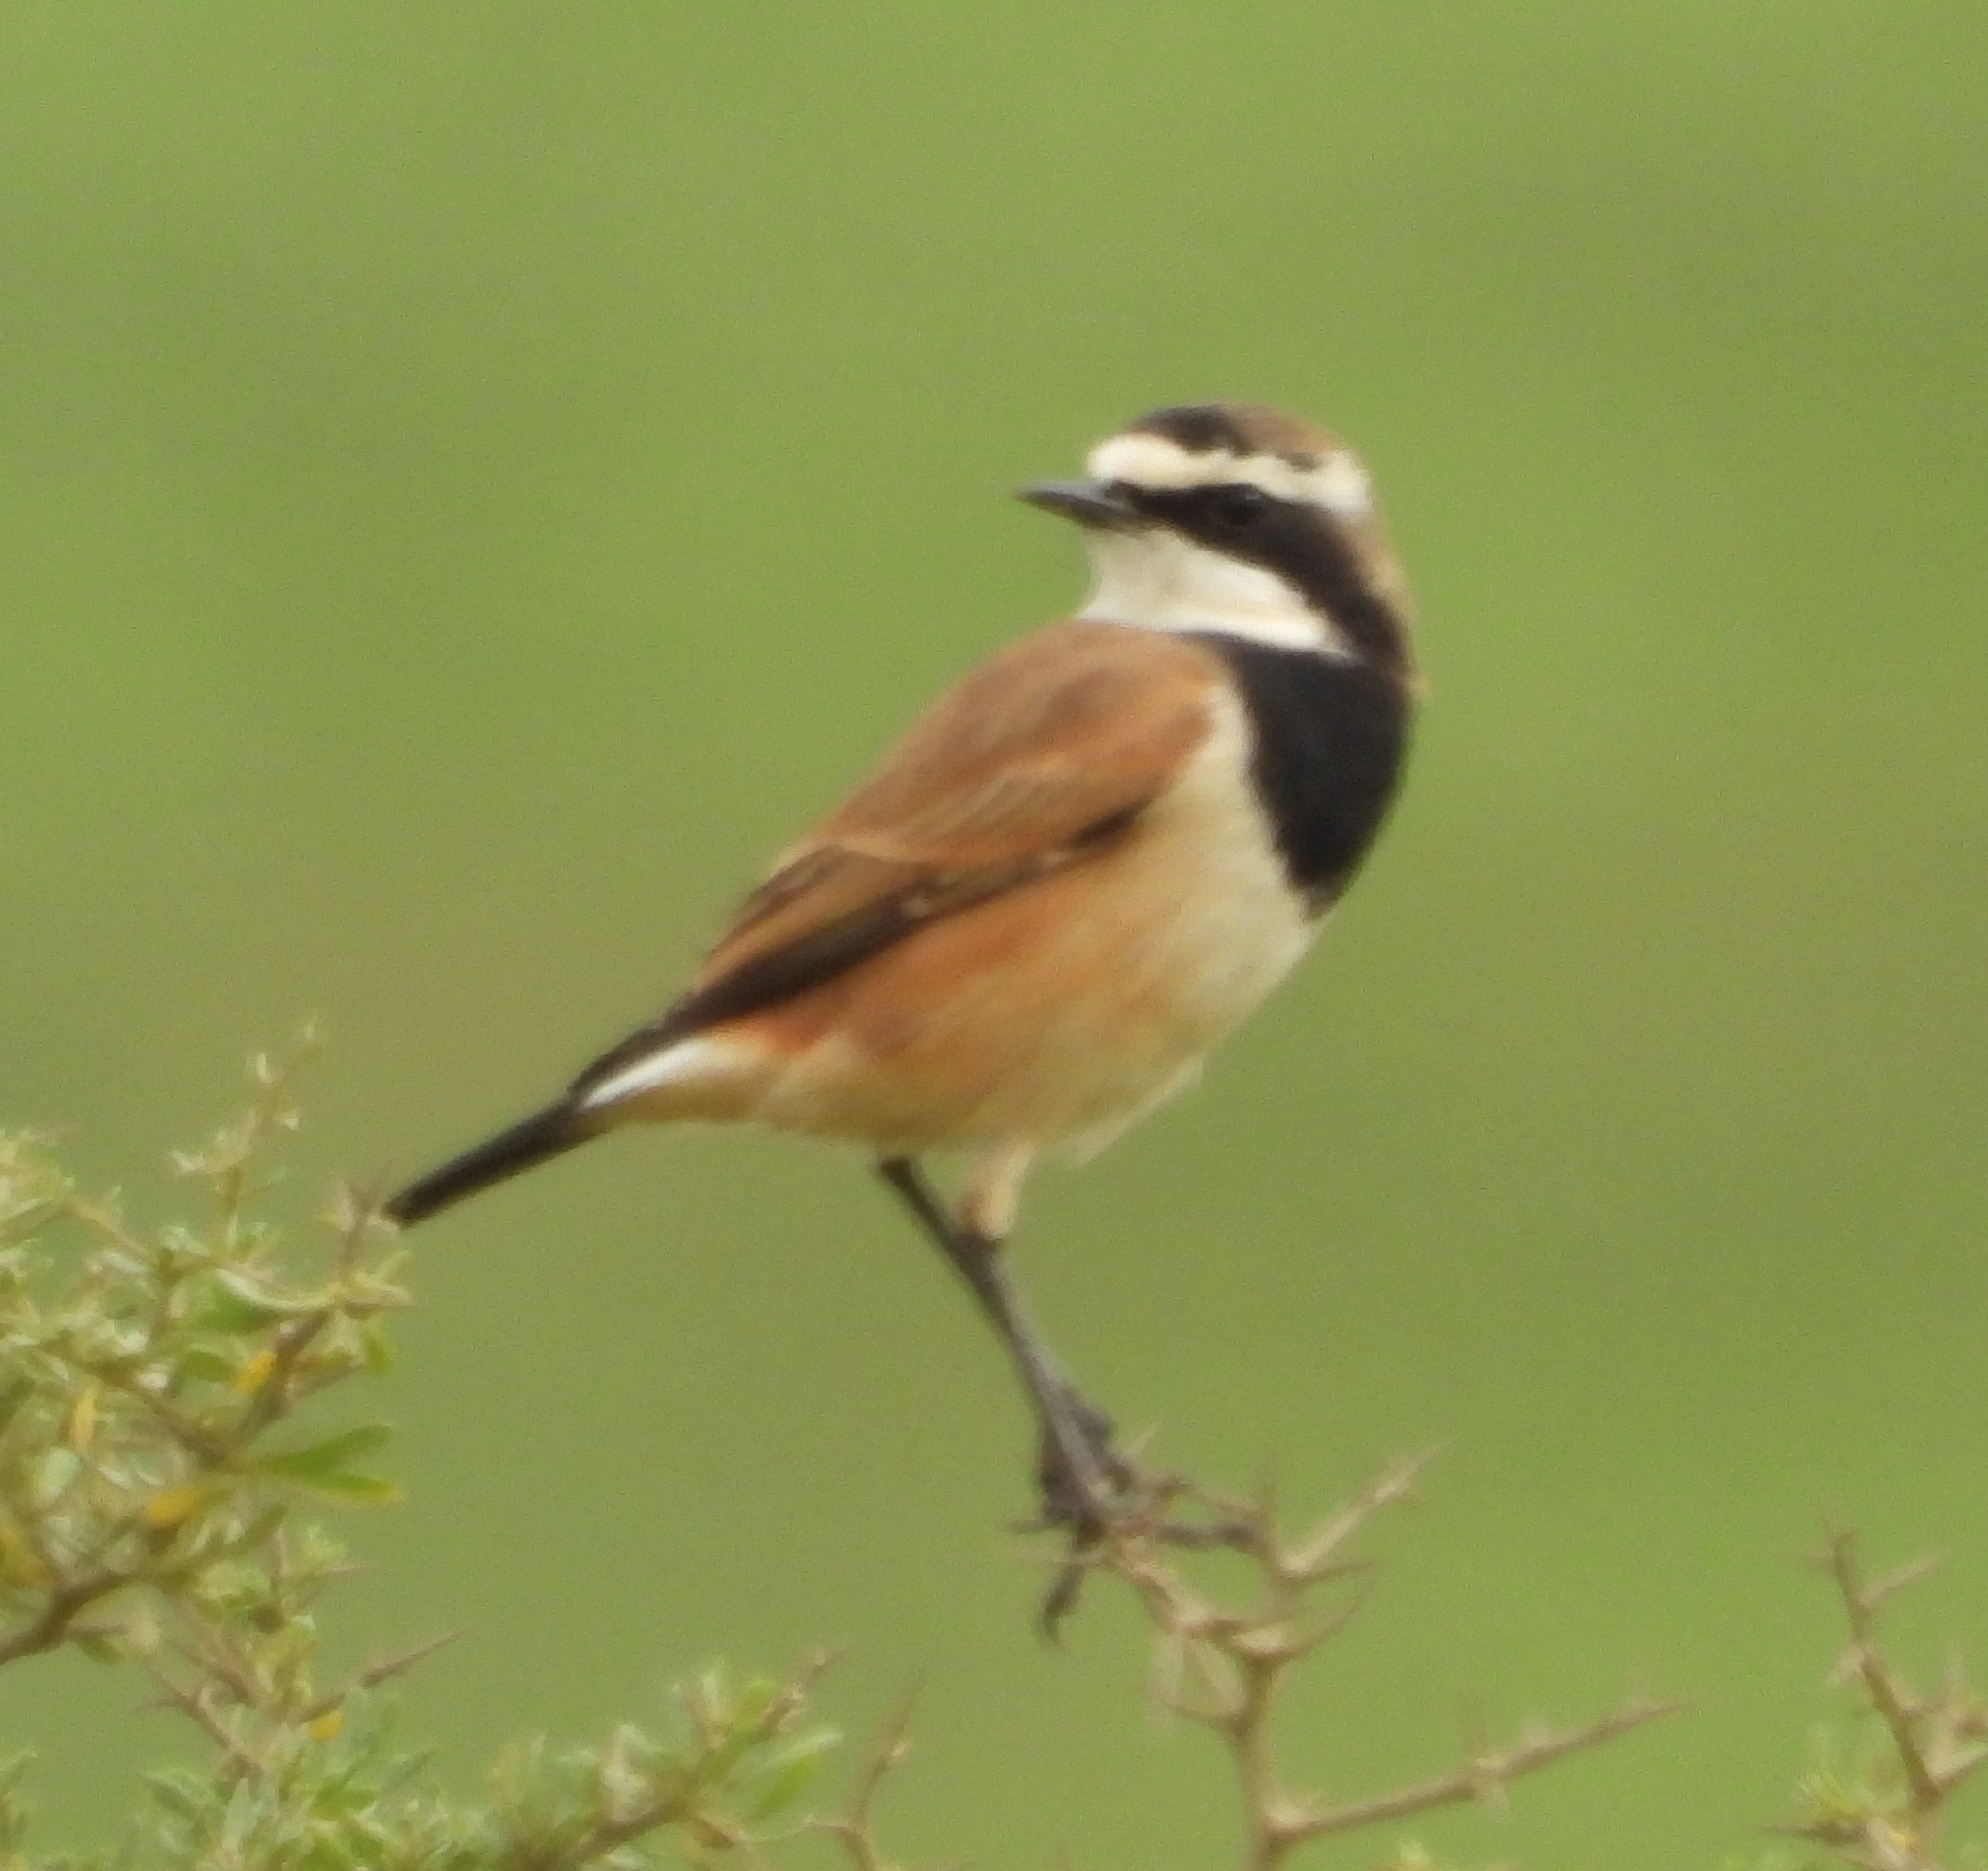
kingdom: Animalia
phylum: Chordata
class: Aves
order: Passeriformes
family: Muscicapidae
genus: Oenanthe
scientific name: Oenanthe pileata
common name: Capped wheatear
